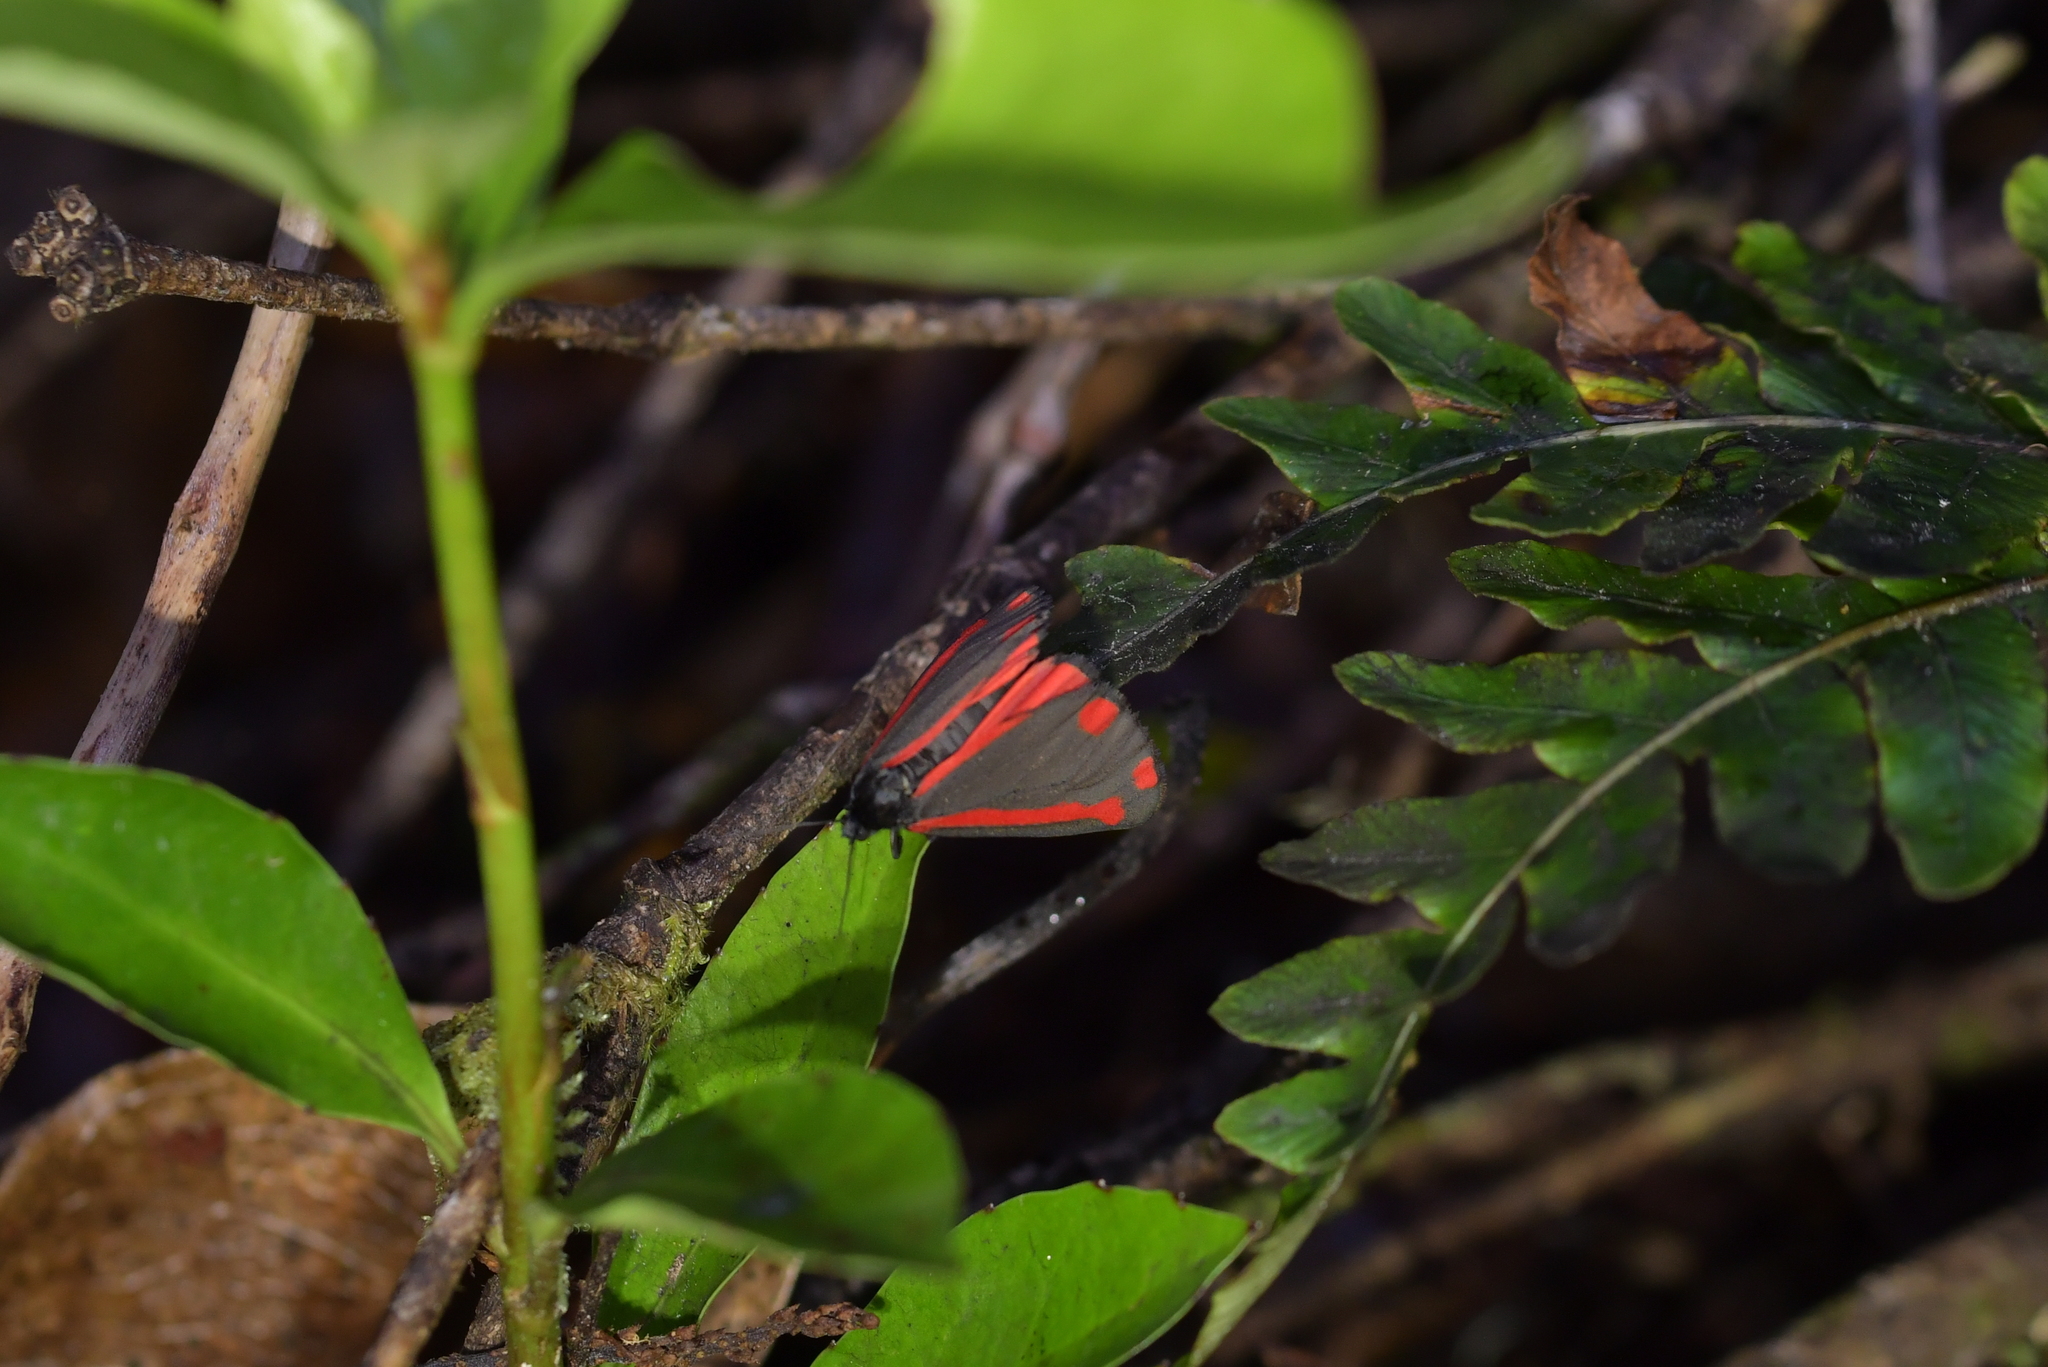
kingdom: Animalia
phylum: Arthropoda
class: Insecta
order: Lepidoptera
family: Erebidae
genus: Tyria
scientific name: Tyria jacobaeae
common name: Cinnabar
